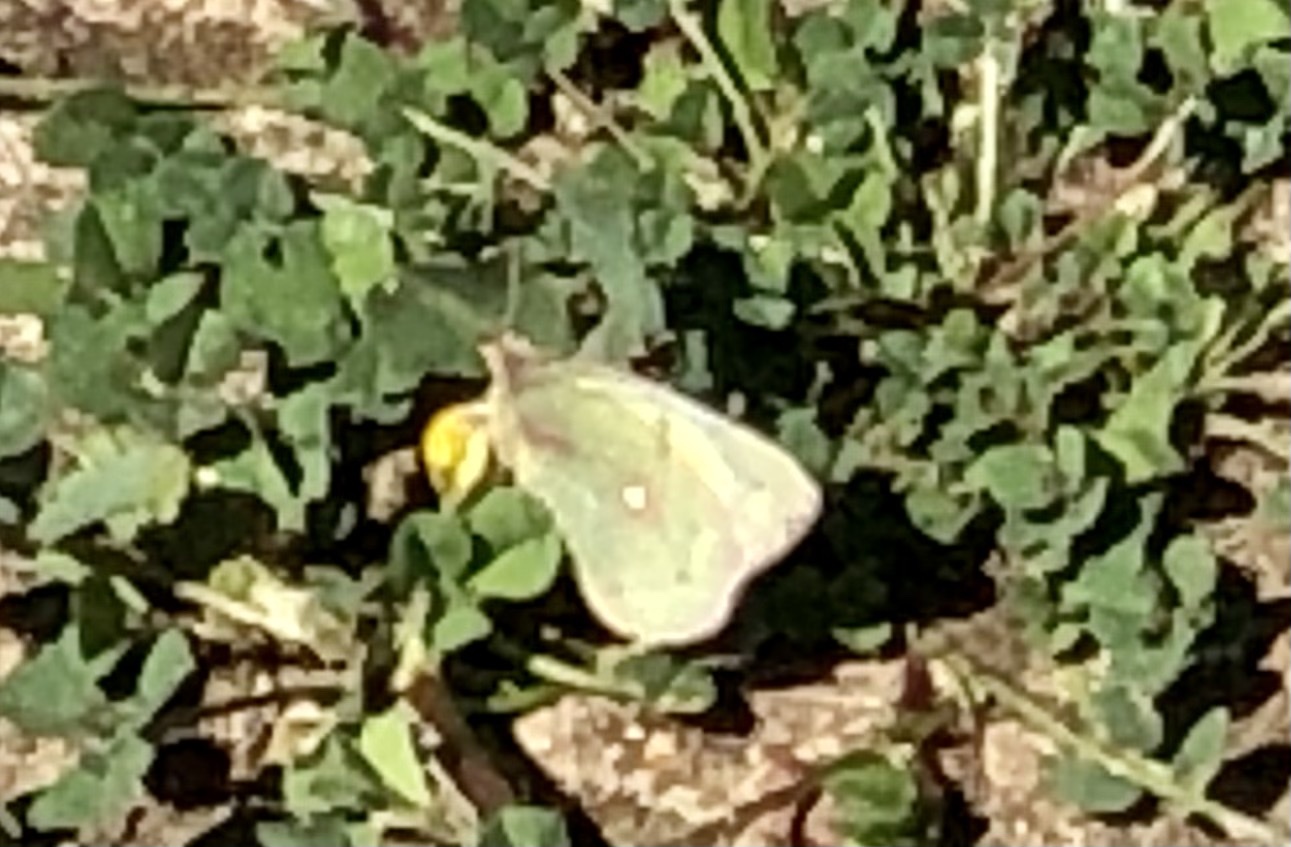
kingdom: Animalia
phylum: Arthropoda
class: Insecta
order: Lepidoptera
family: Pieridae
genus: Colias
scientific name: Colias eurytheme
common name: Alfalfa butterfly
